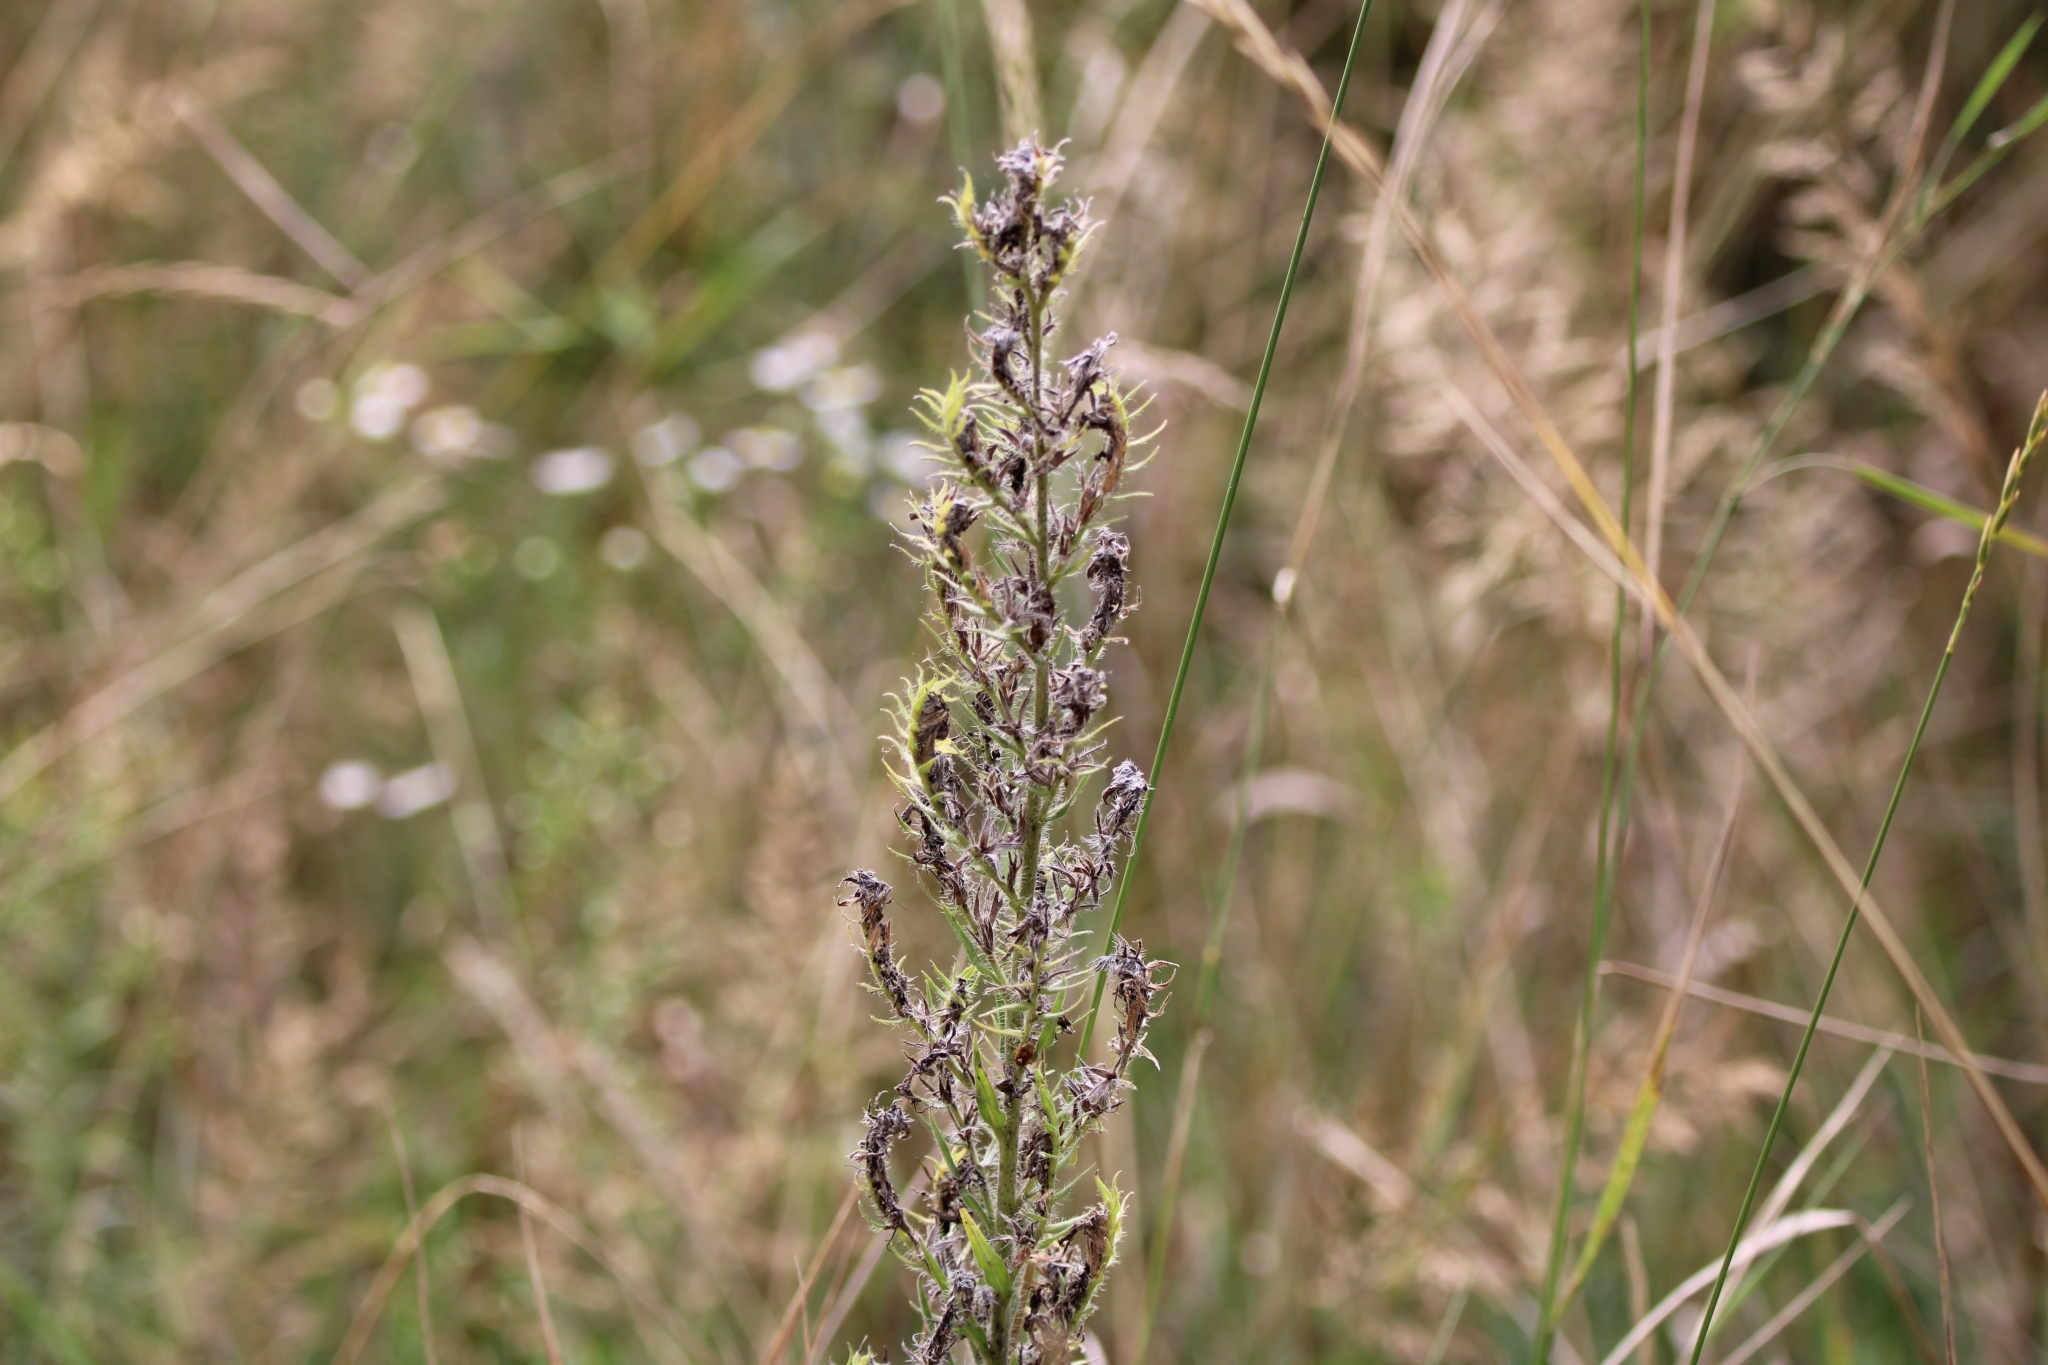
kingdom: Plantae
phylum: Tracheophyta
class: Magnoliopsida
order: Boraginales
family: Boraginaceae
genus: Echium
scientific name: Echium vulgare
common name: Common viper's bugloss
